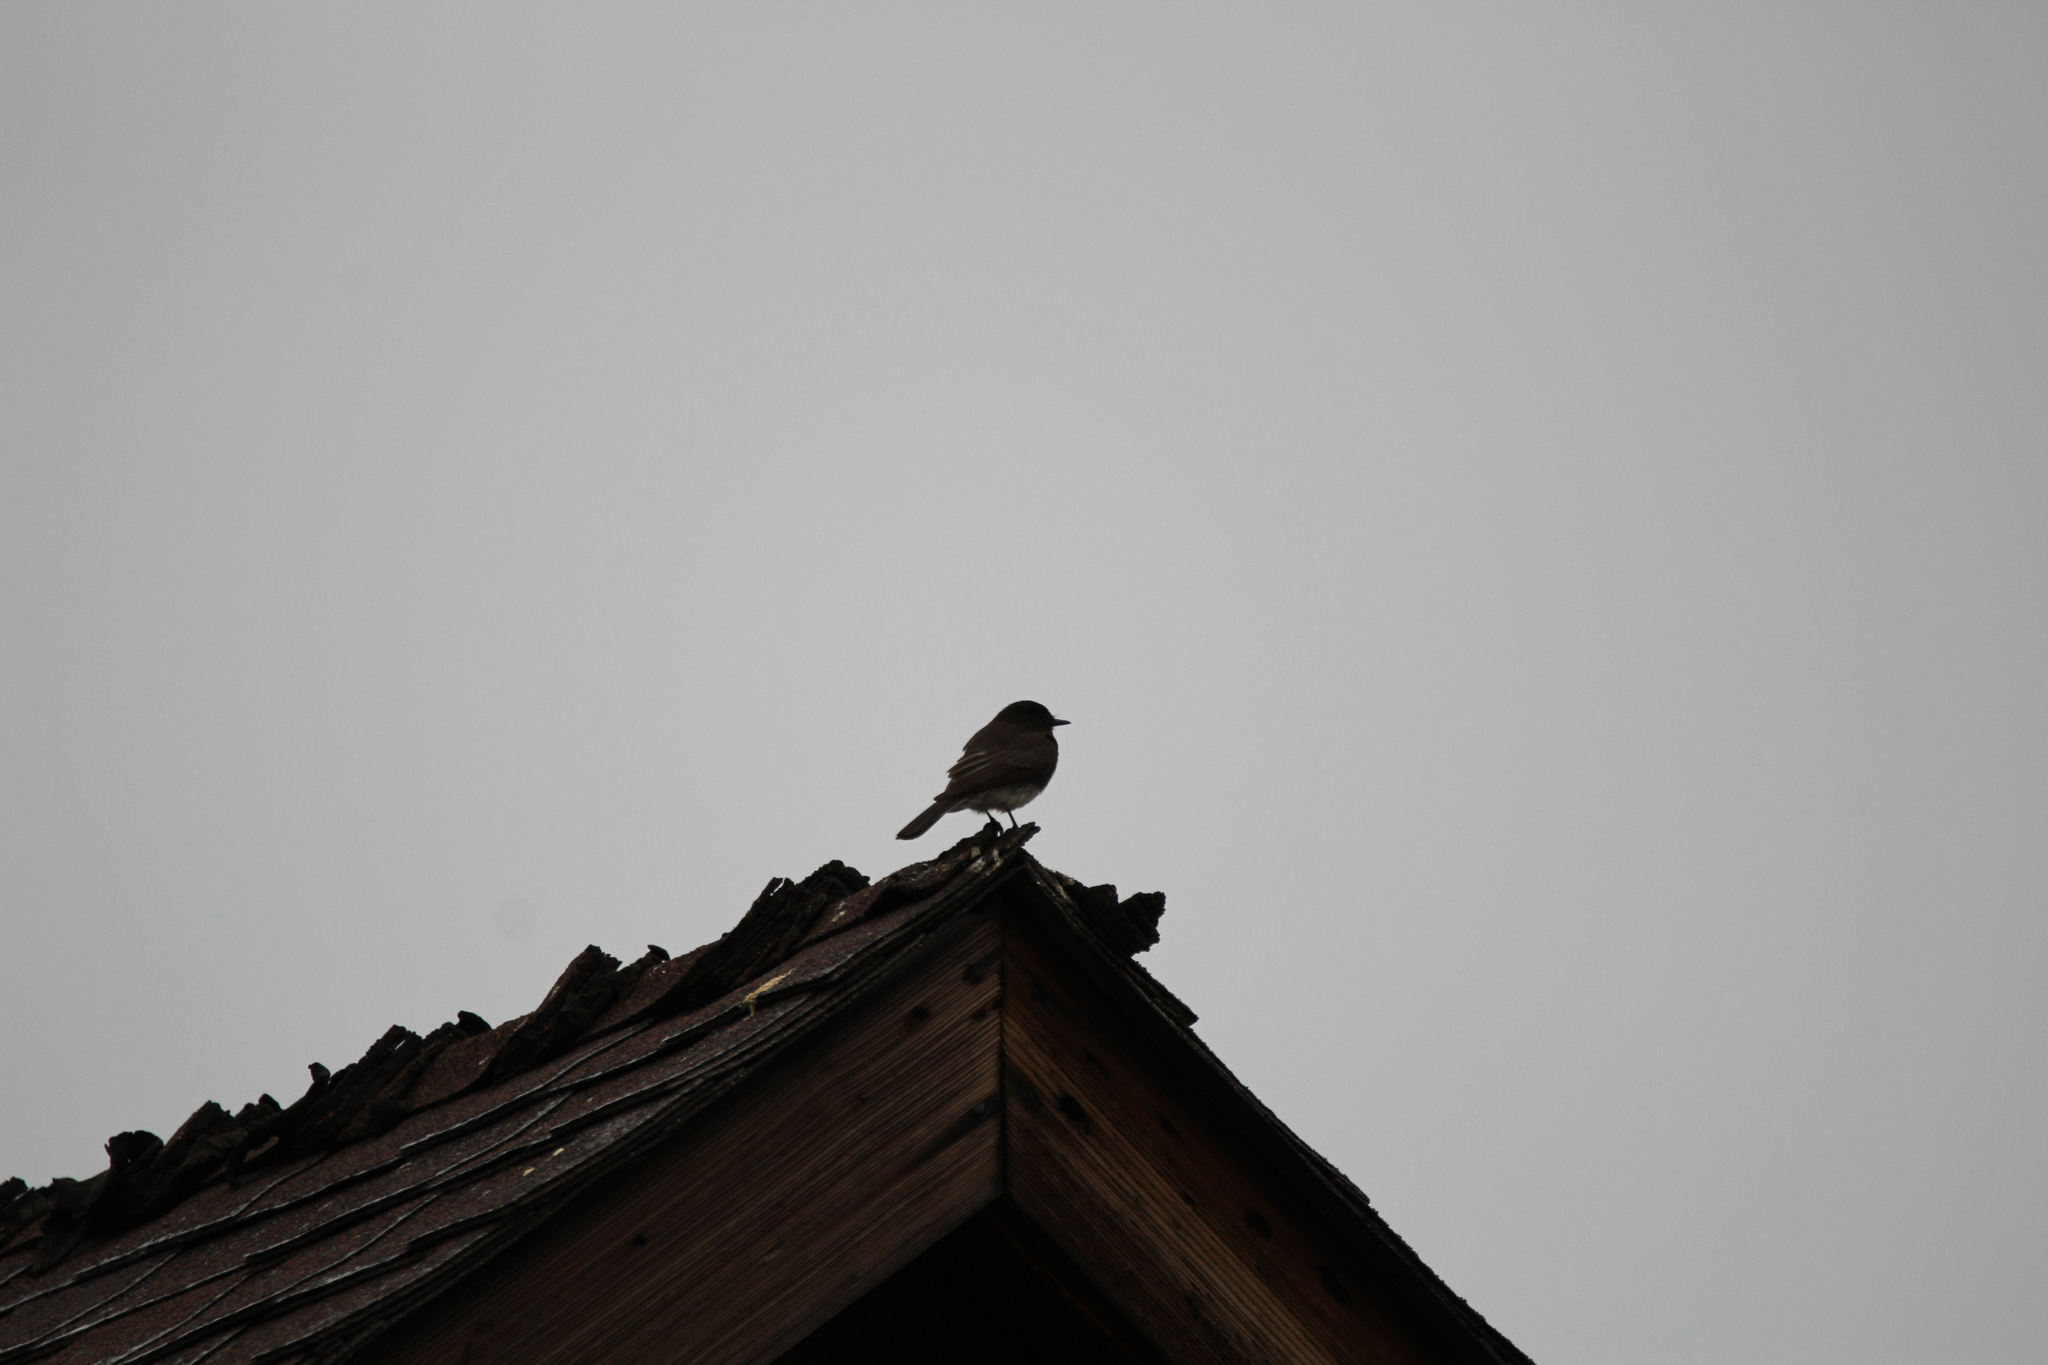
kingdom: Animalia
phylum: Chordata
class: Aves
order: Passeriformes
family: Tyrannidae
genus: Sayornis
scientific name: Sayornis nigricans
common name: Black phoebe
